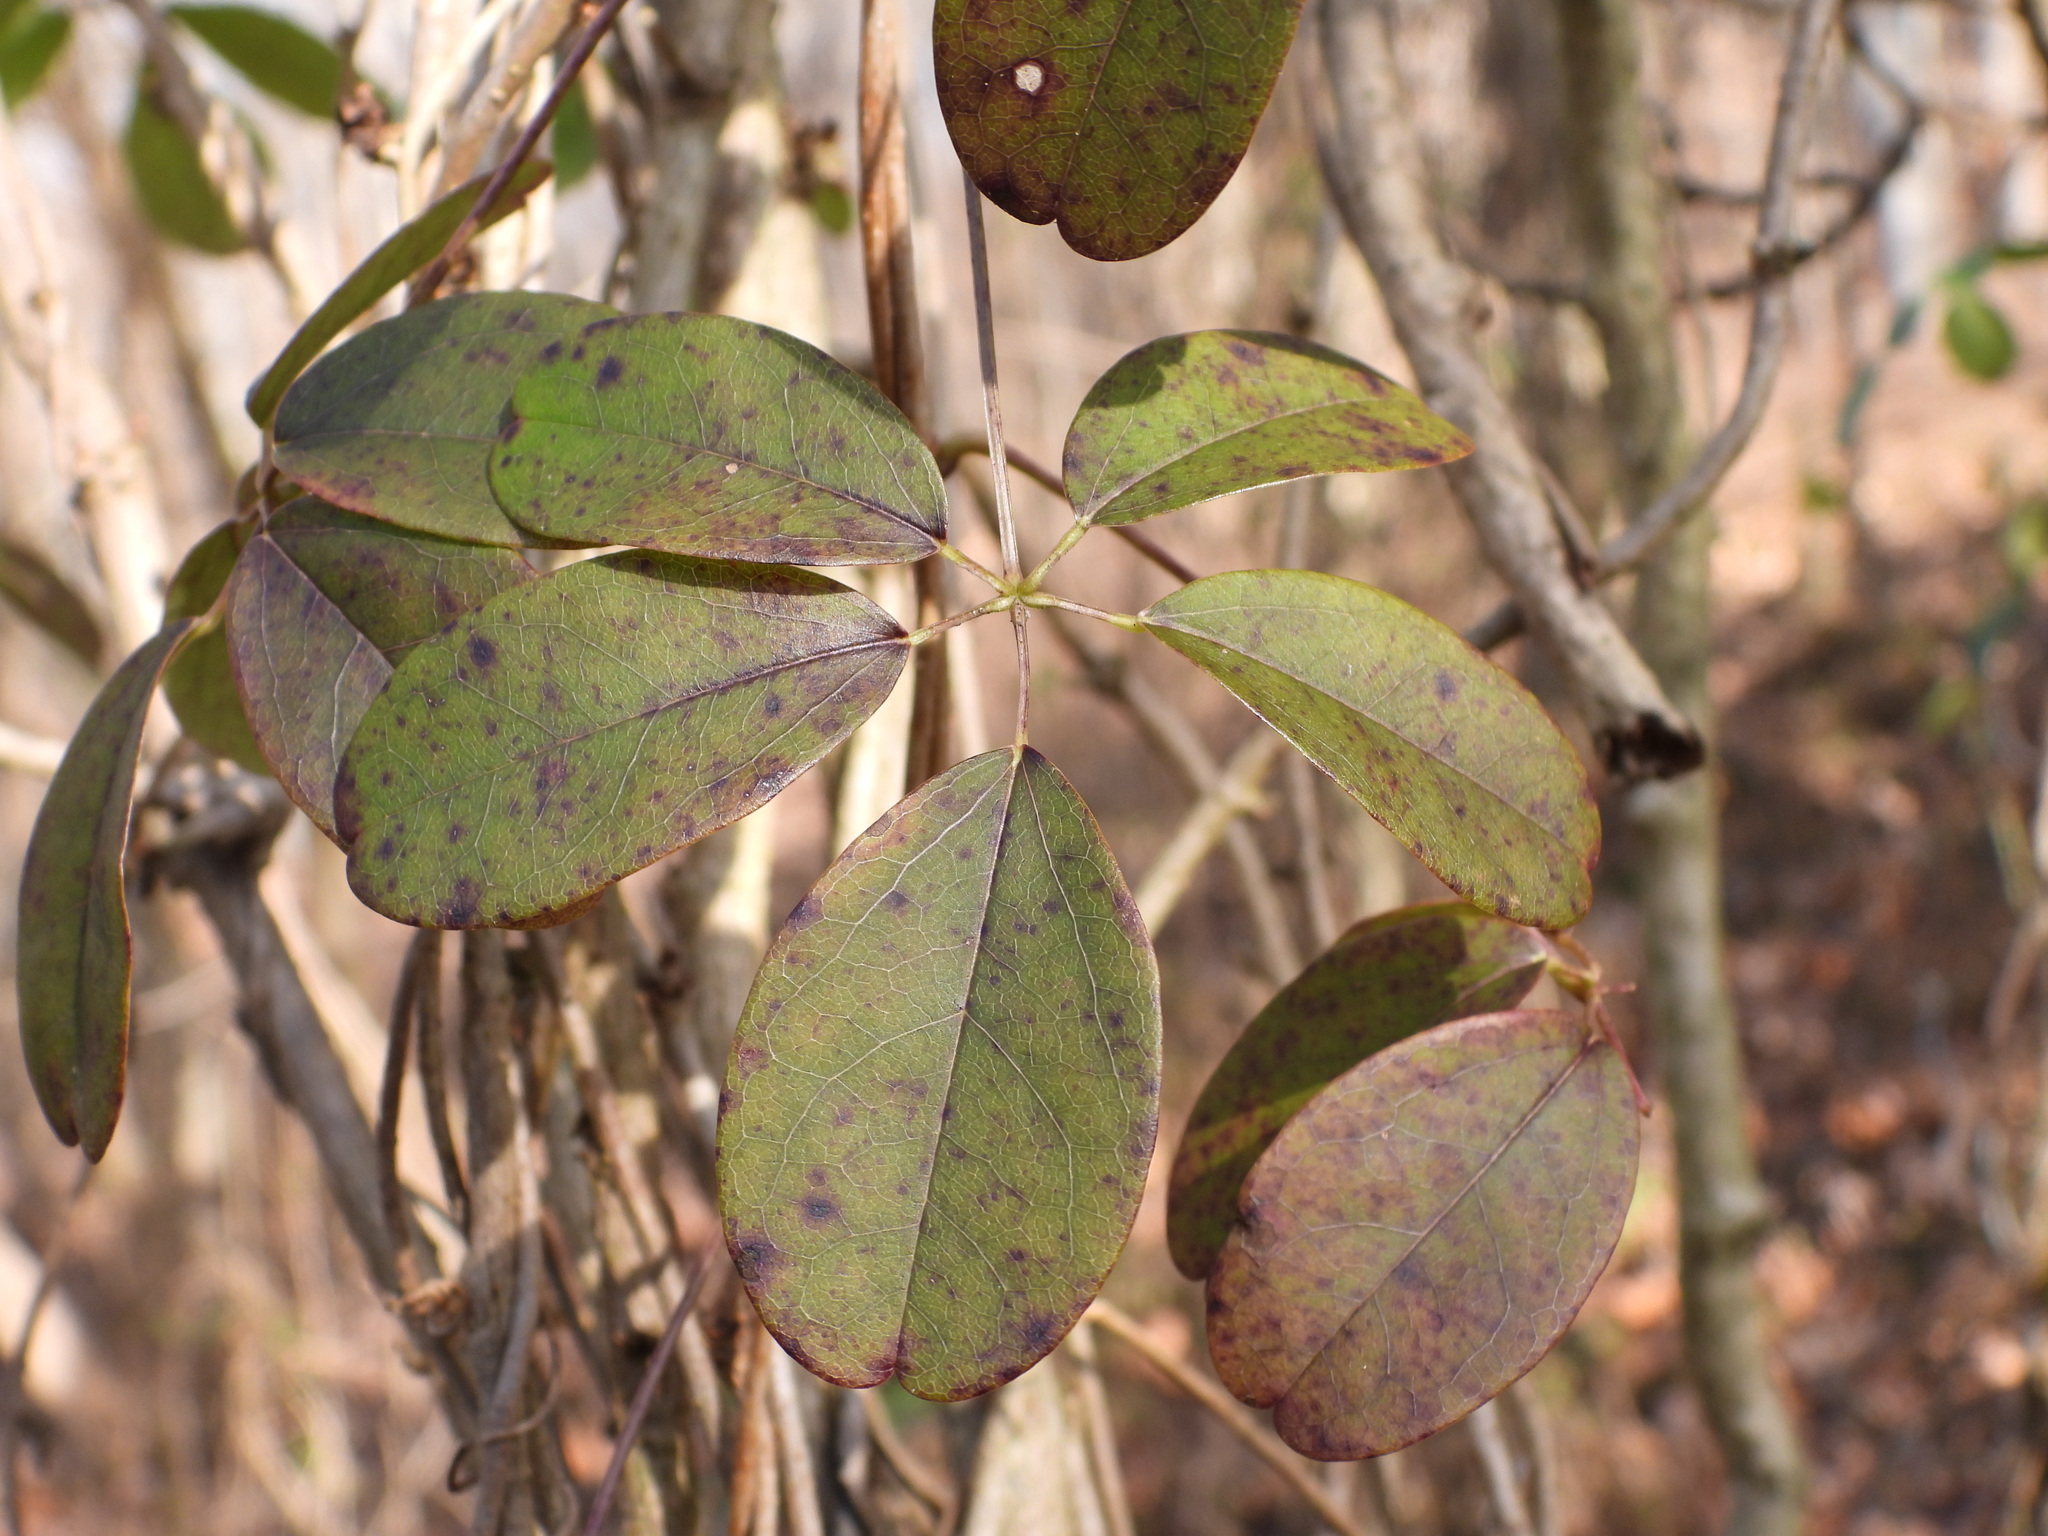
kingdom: Plantae
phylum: Tracheophyta
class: Magnoliopsida
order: Ranunculales
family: Lardizabalaceae
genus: Akebia
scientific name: Akebia quinata
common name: Five-leaf akebia
